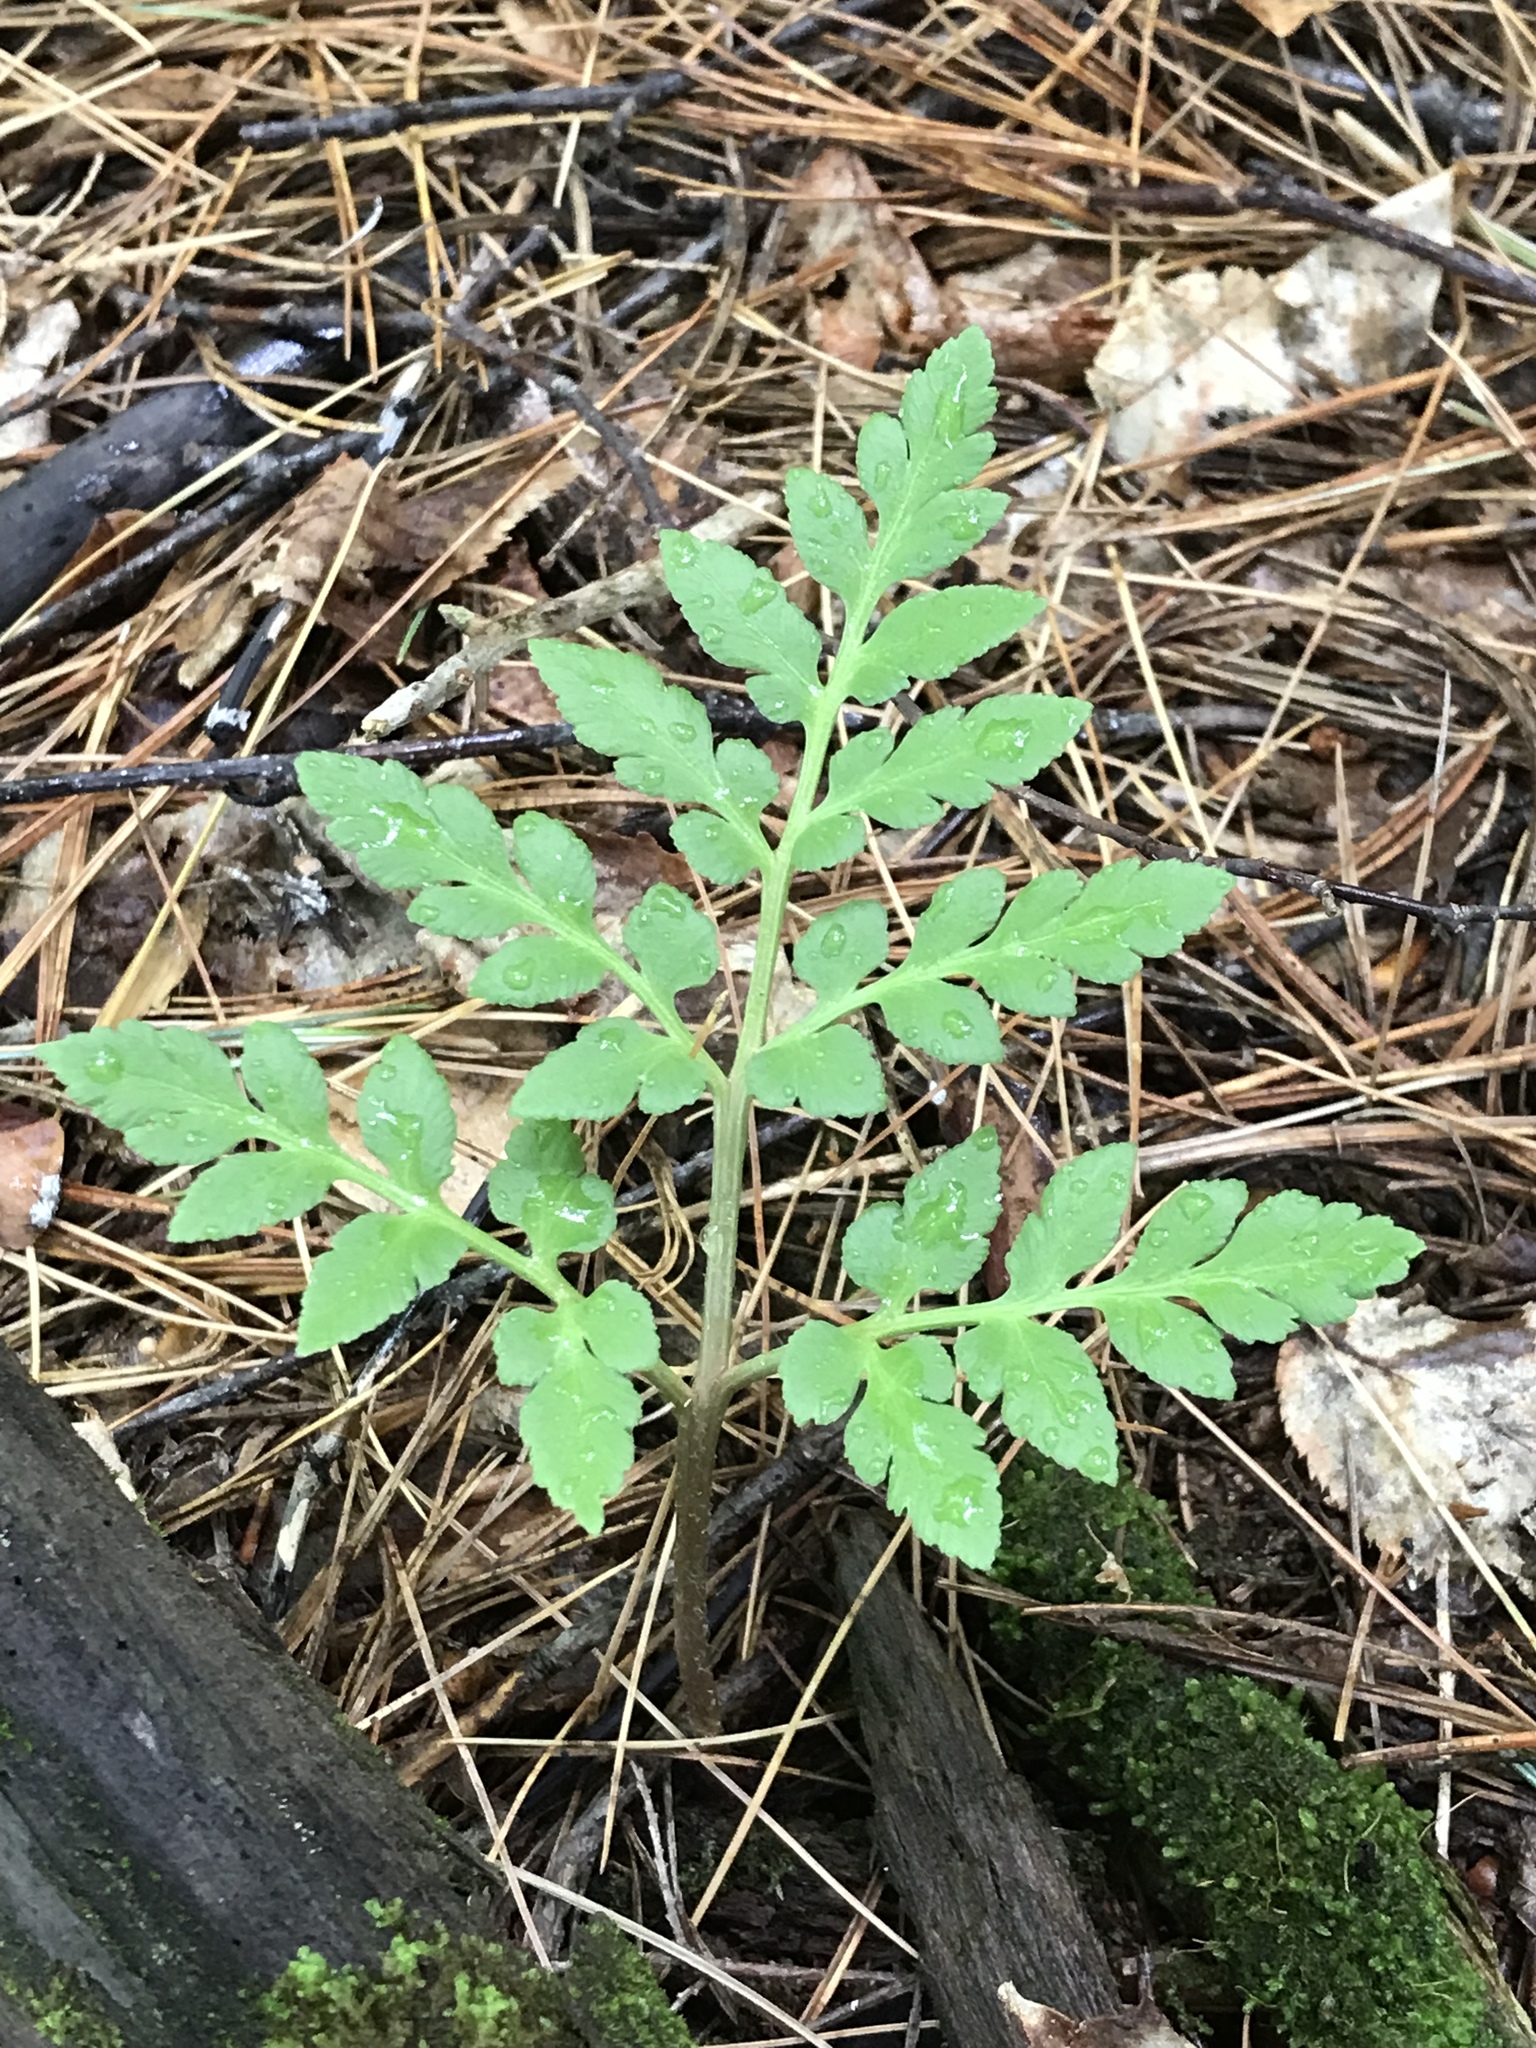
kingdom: Plantae
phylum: Tracheophyta
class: Polypodiopsida
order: Ophioglossales
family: Ophioglossaceae
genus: Sceptridium
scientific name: Sceptridium dissectum
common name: Cut-leaved grapefern
